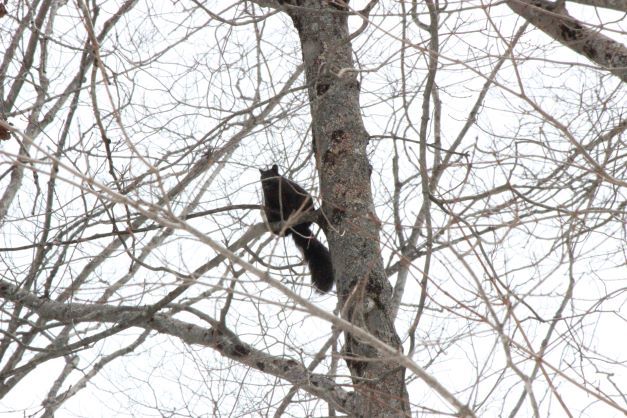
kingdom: Animalia
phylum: Chordata
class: Mammalia
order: Rodentia
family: Sciuridae
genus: Sciurus
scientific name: Sciurus carolinensis
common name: Eastern gray squirrel
